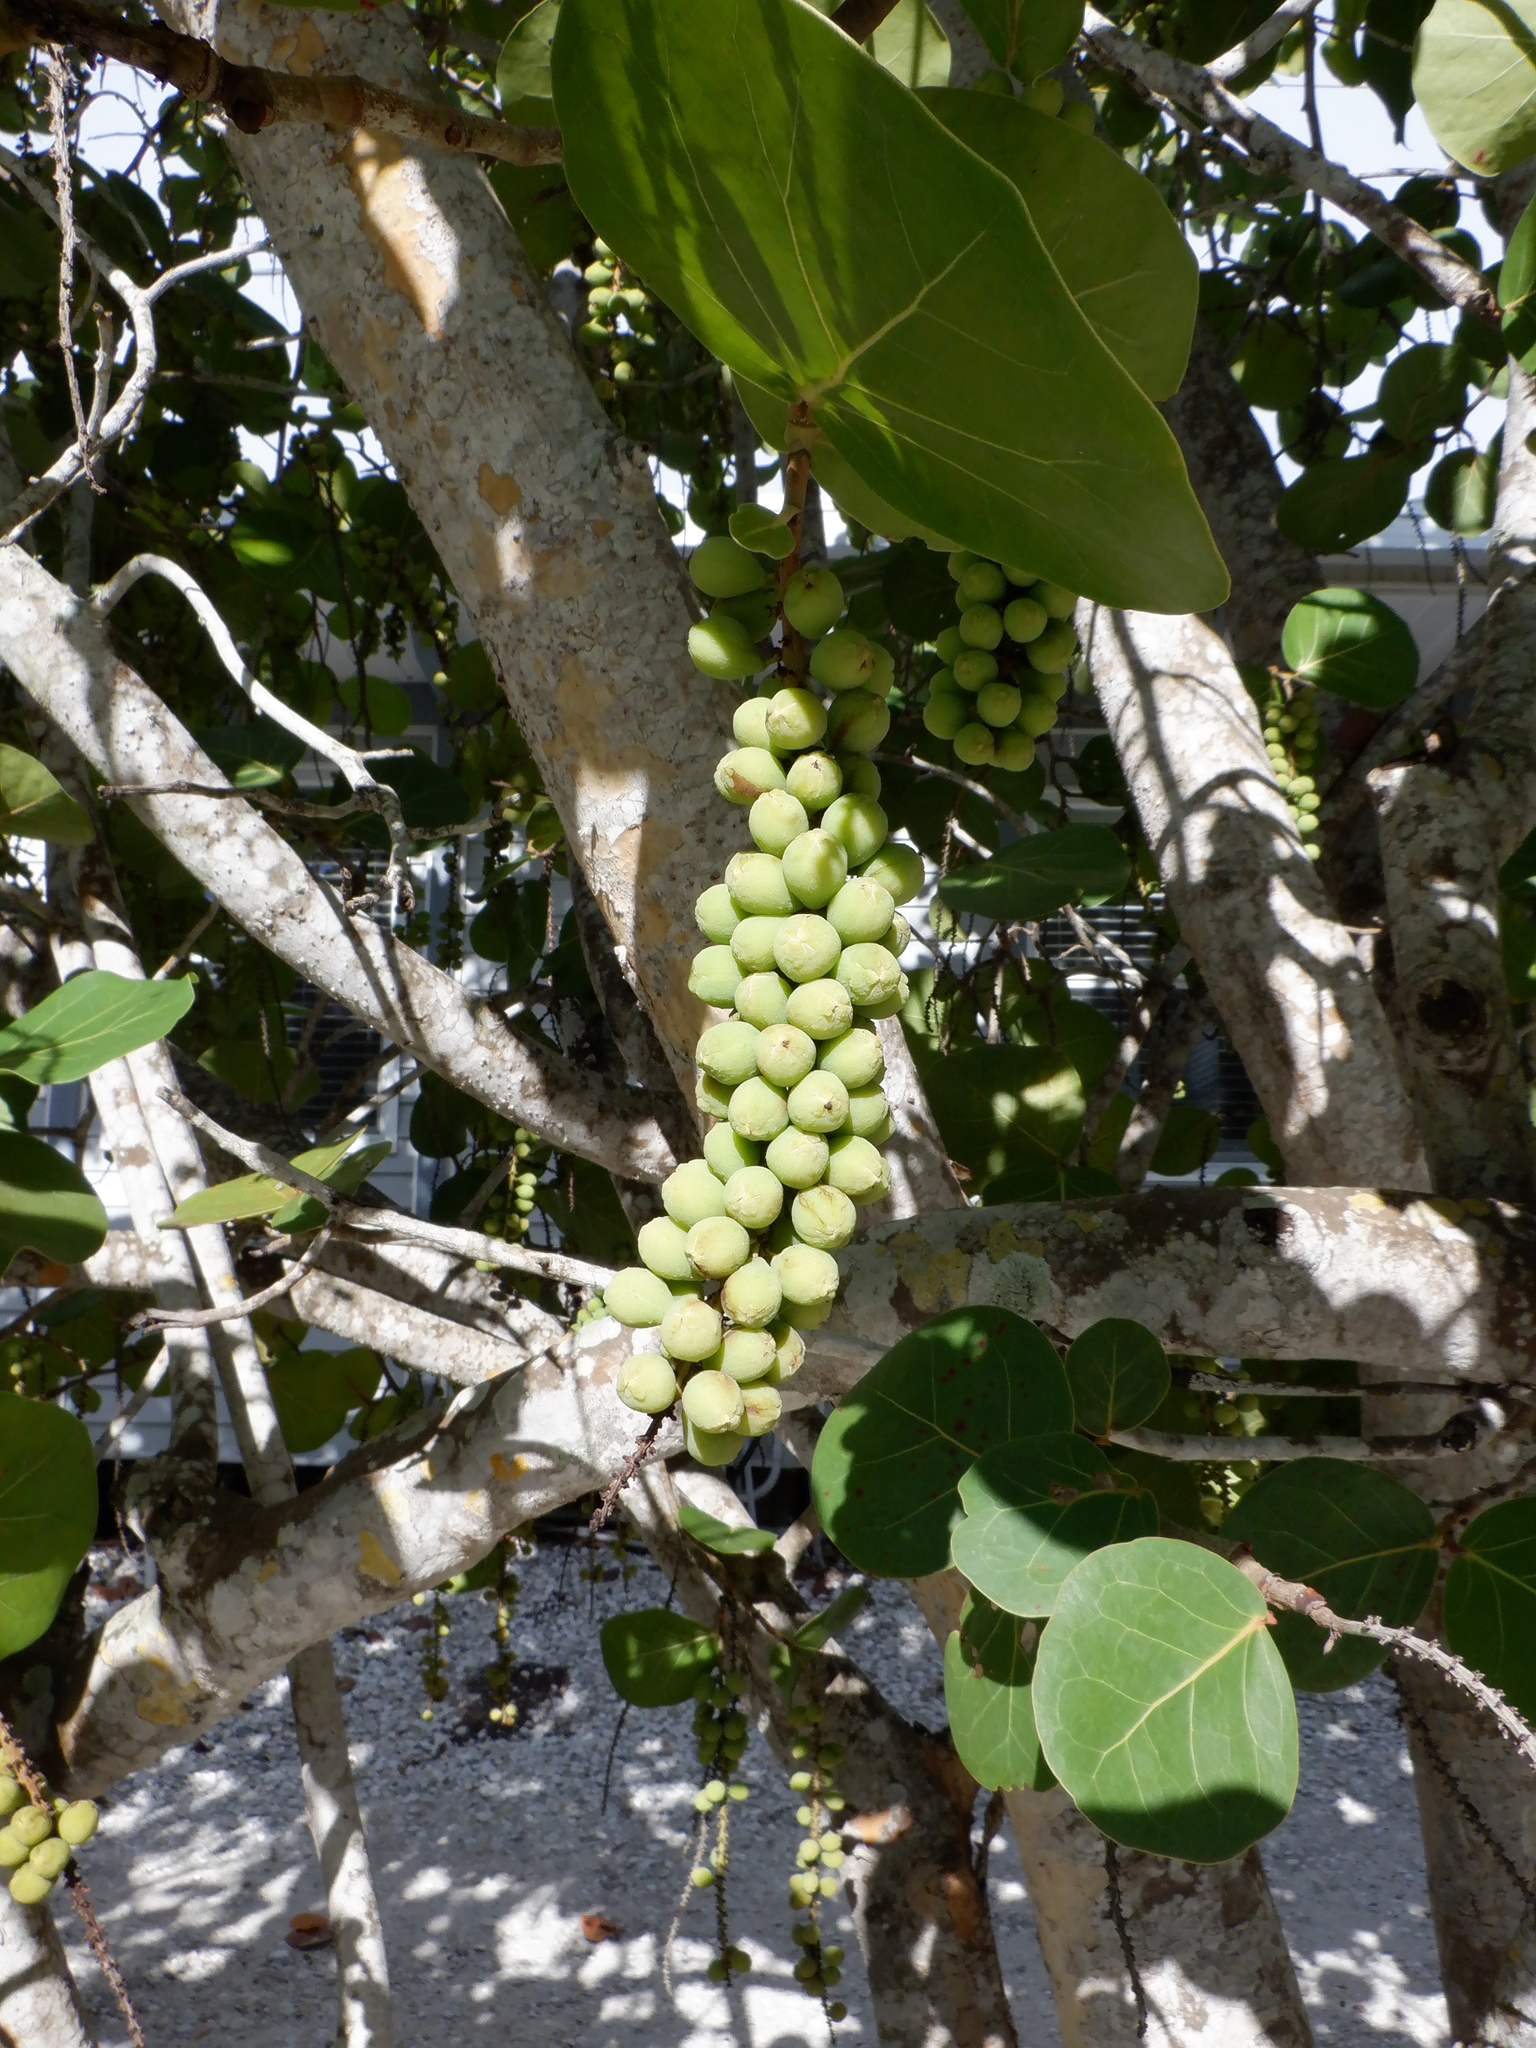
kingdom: Plantae
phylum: Tracheophyta
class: Magnoliopsida
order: Caryophyllales
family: Polygonaceae
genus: Coccoloba
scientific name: Coccoloba uvifera
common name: Seagrape
